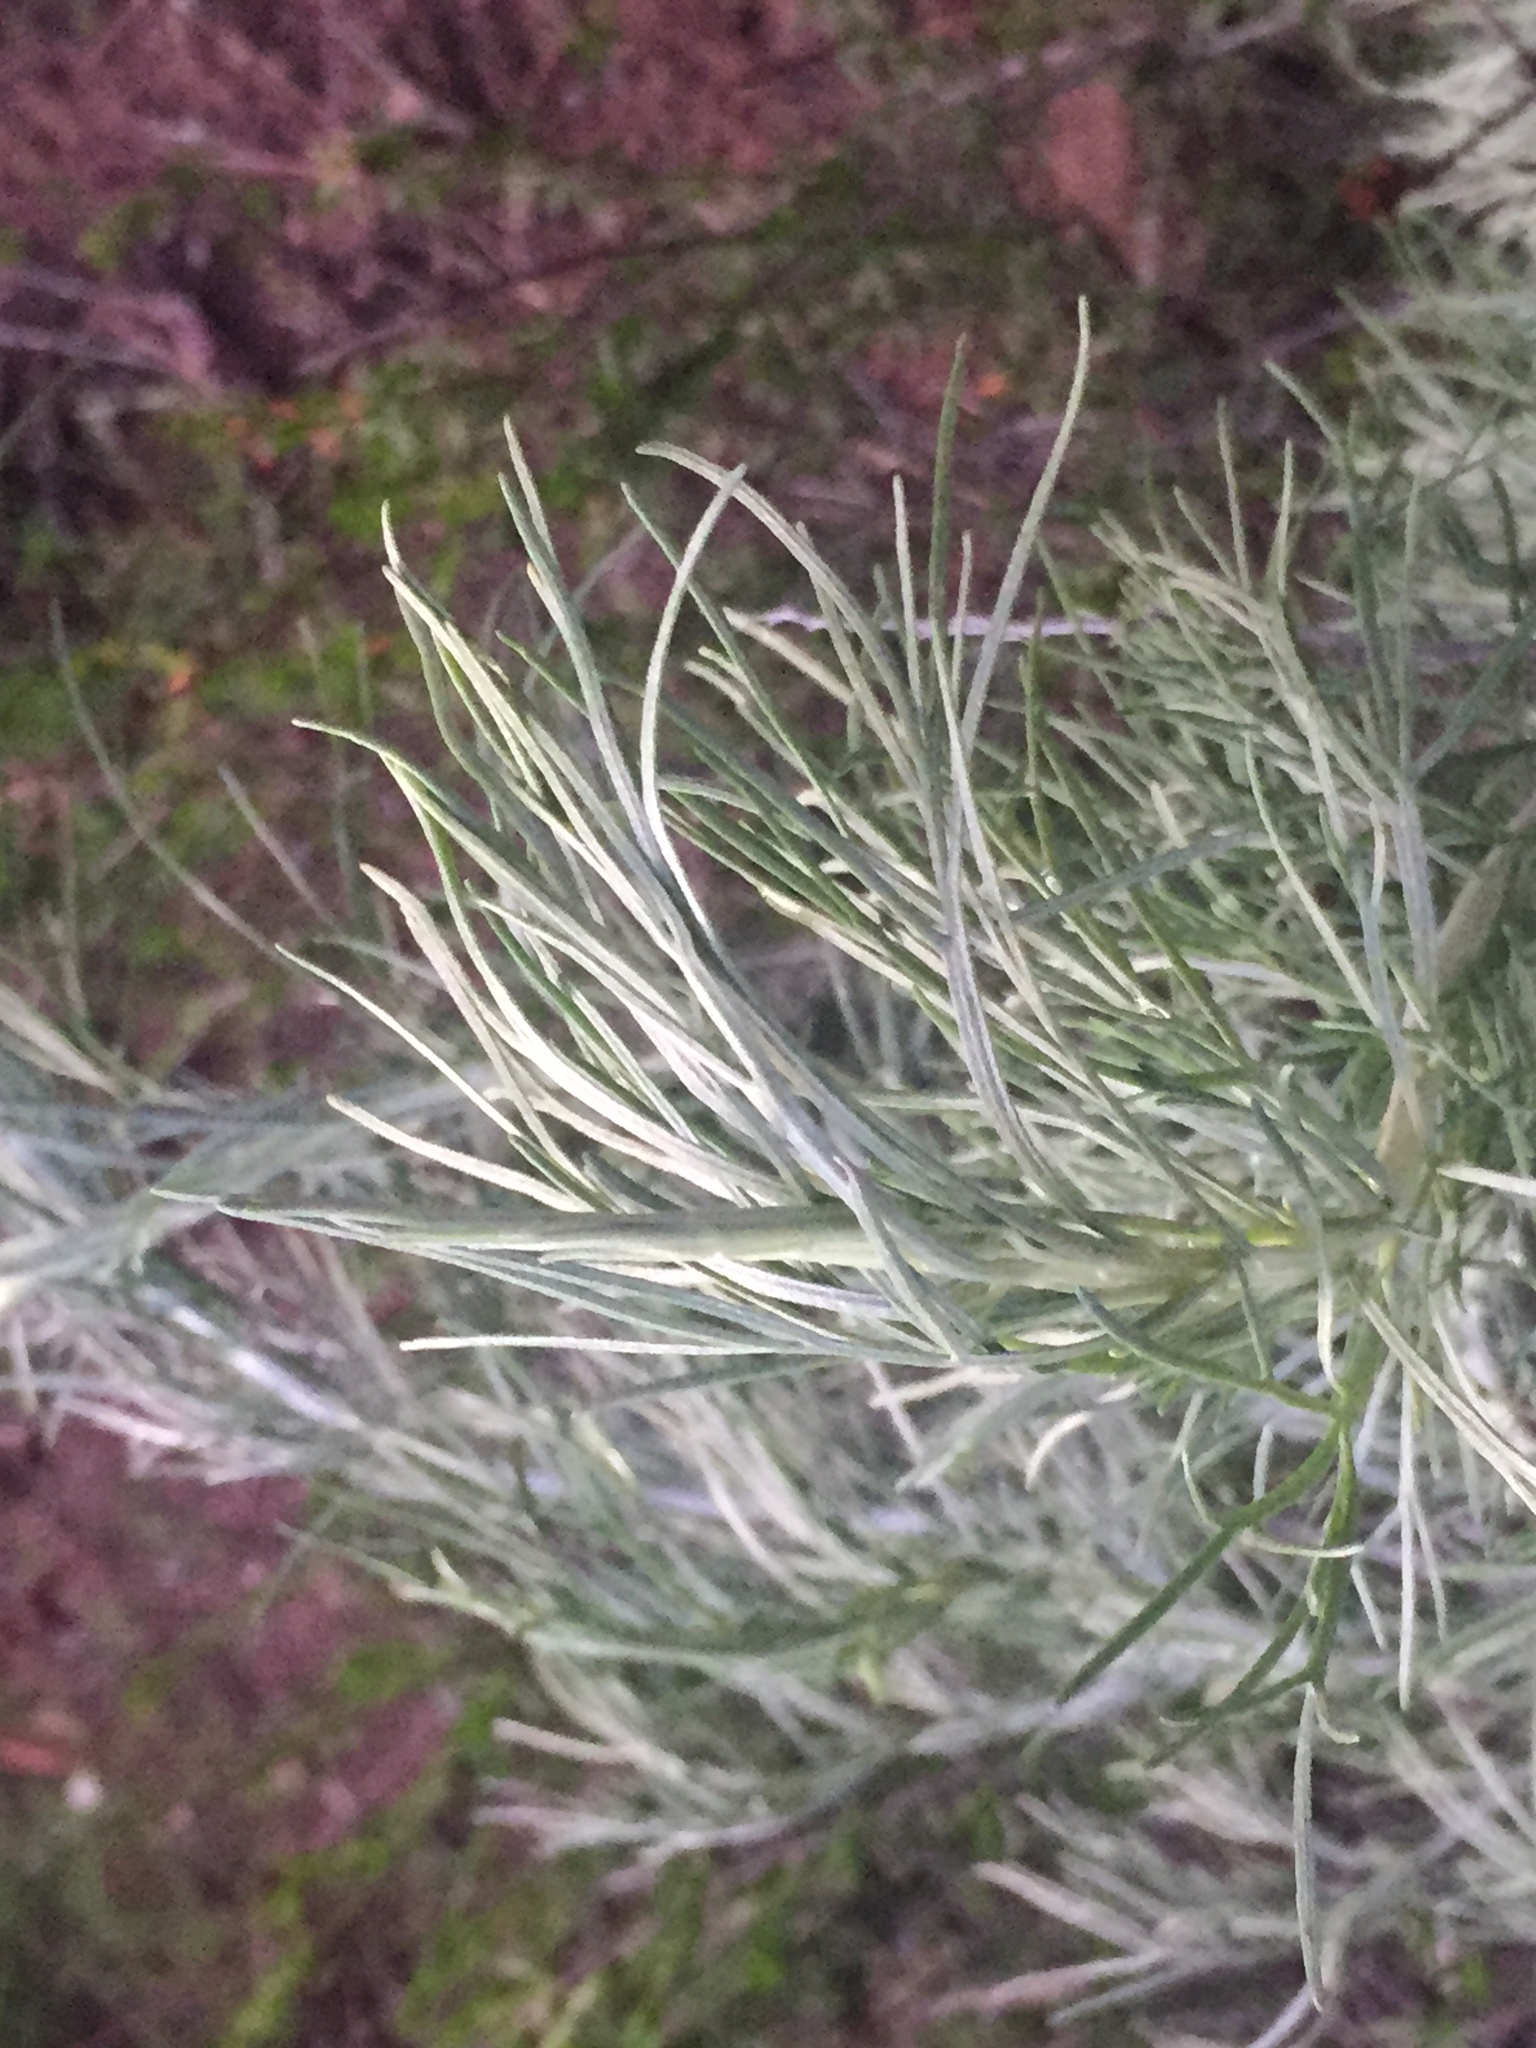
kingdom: Plantae
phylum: Tracheophyta
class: Magnoliopsida
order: Asterales
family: Asteraceae
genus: Artemisia
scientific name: Artemisia californica
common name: California sagebrush
